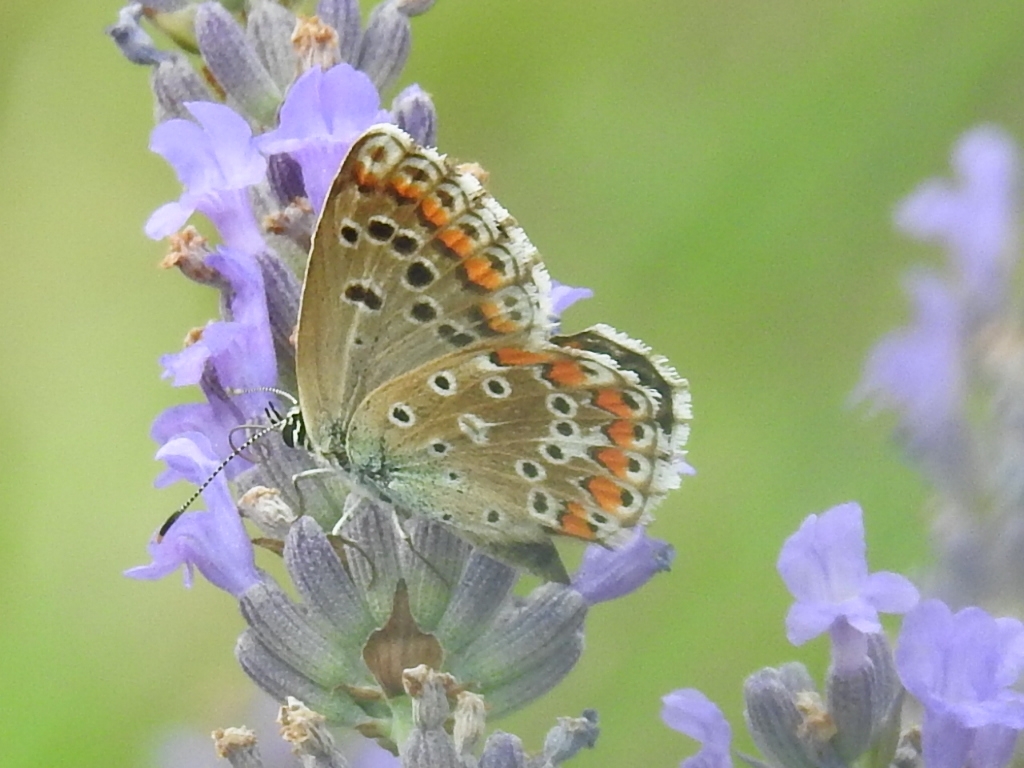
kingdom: Animalia
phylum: Arthropoda
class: Insecta
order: Lepidoptera
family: Lycaenidae
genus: Lysandra
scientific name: Lysandra bellargus
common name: Adonis blue
